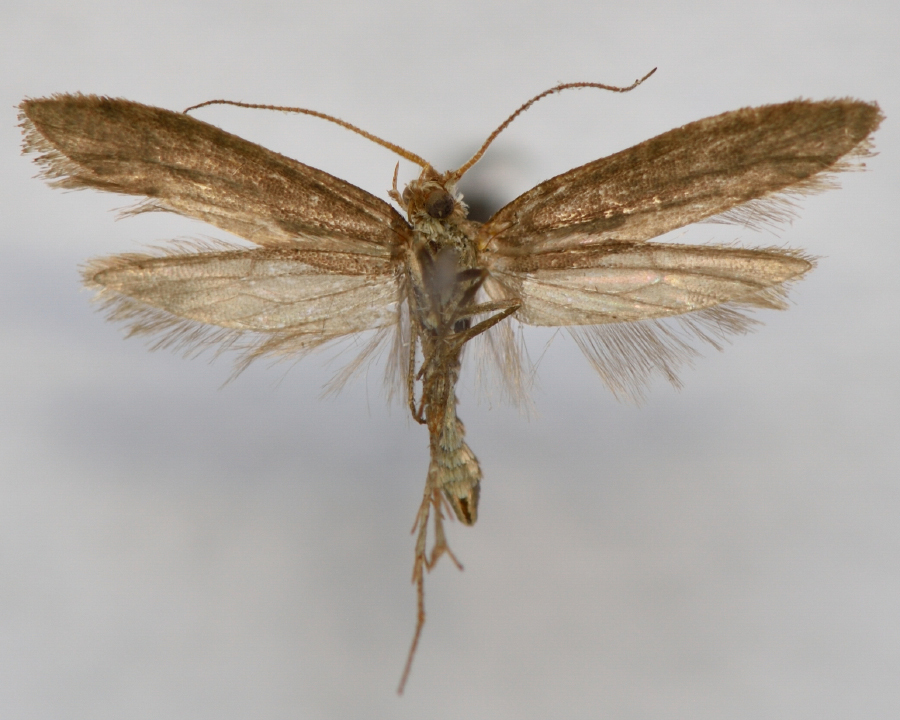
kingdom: Animalia
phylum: Arthropoda
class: Insecta
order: Lepidoptera
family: Plutellidae
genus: Plutella
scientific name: Plutella xylostella
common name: Diamond-back moth
